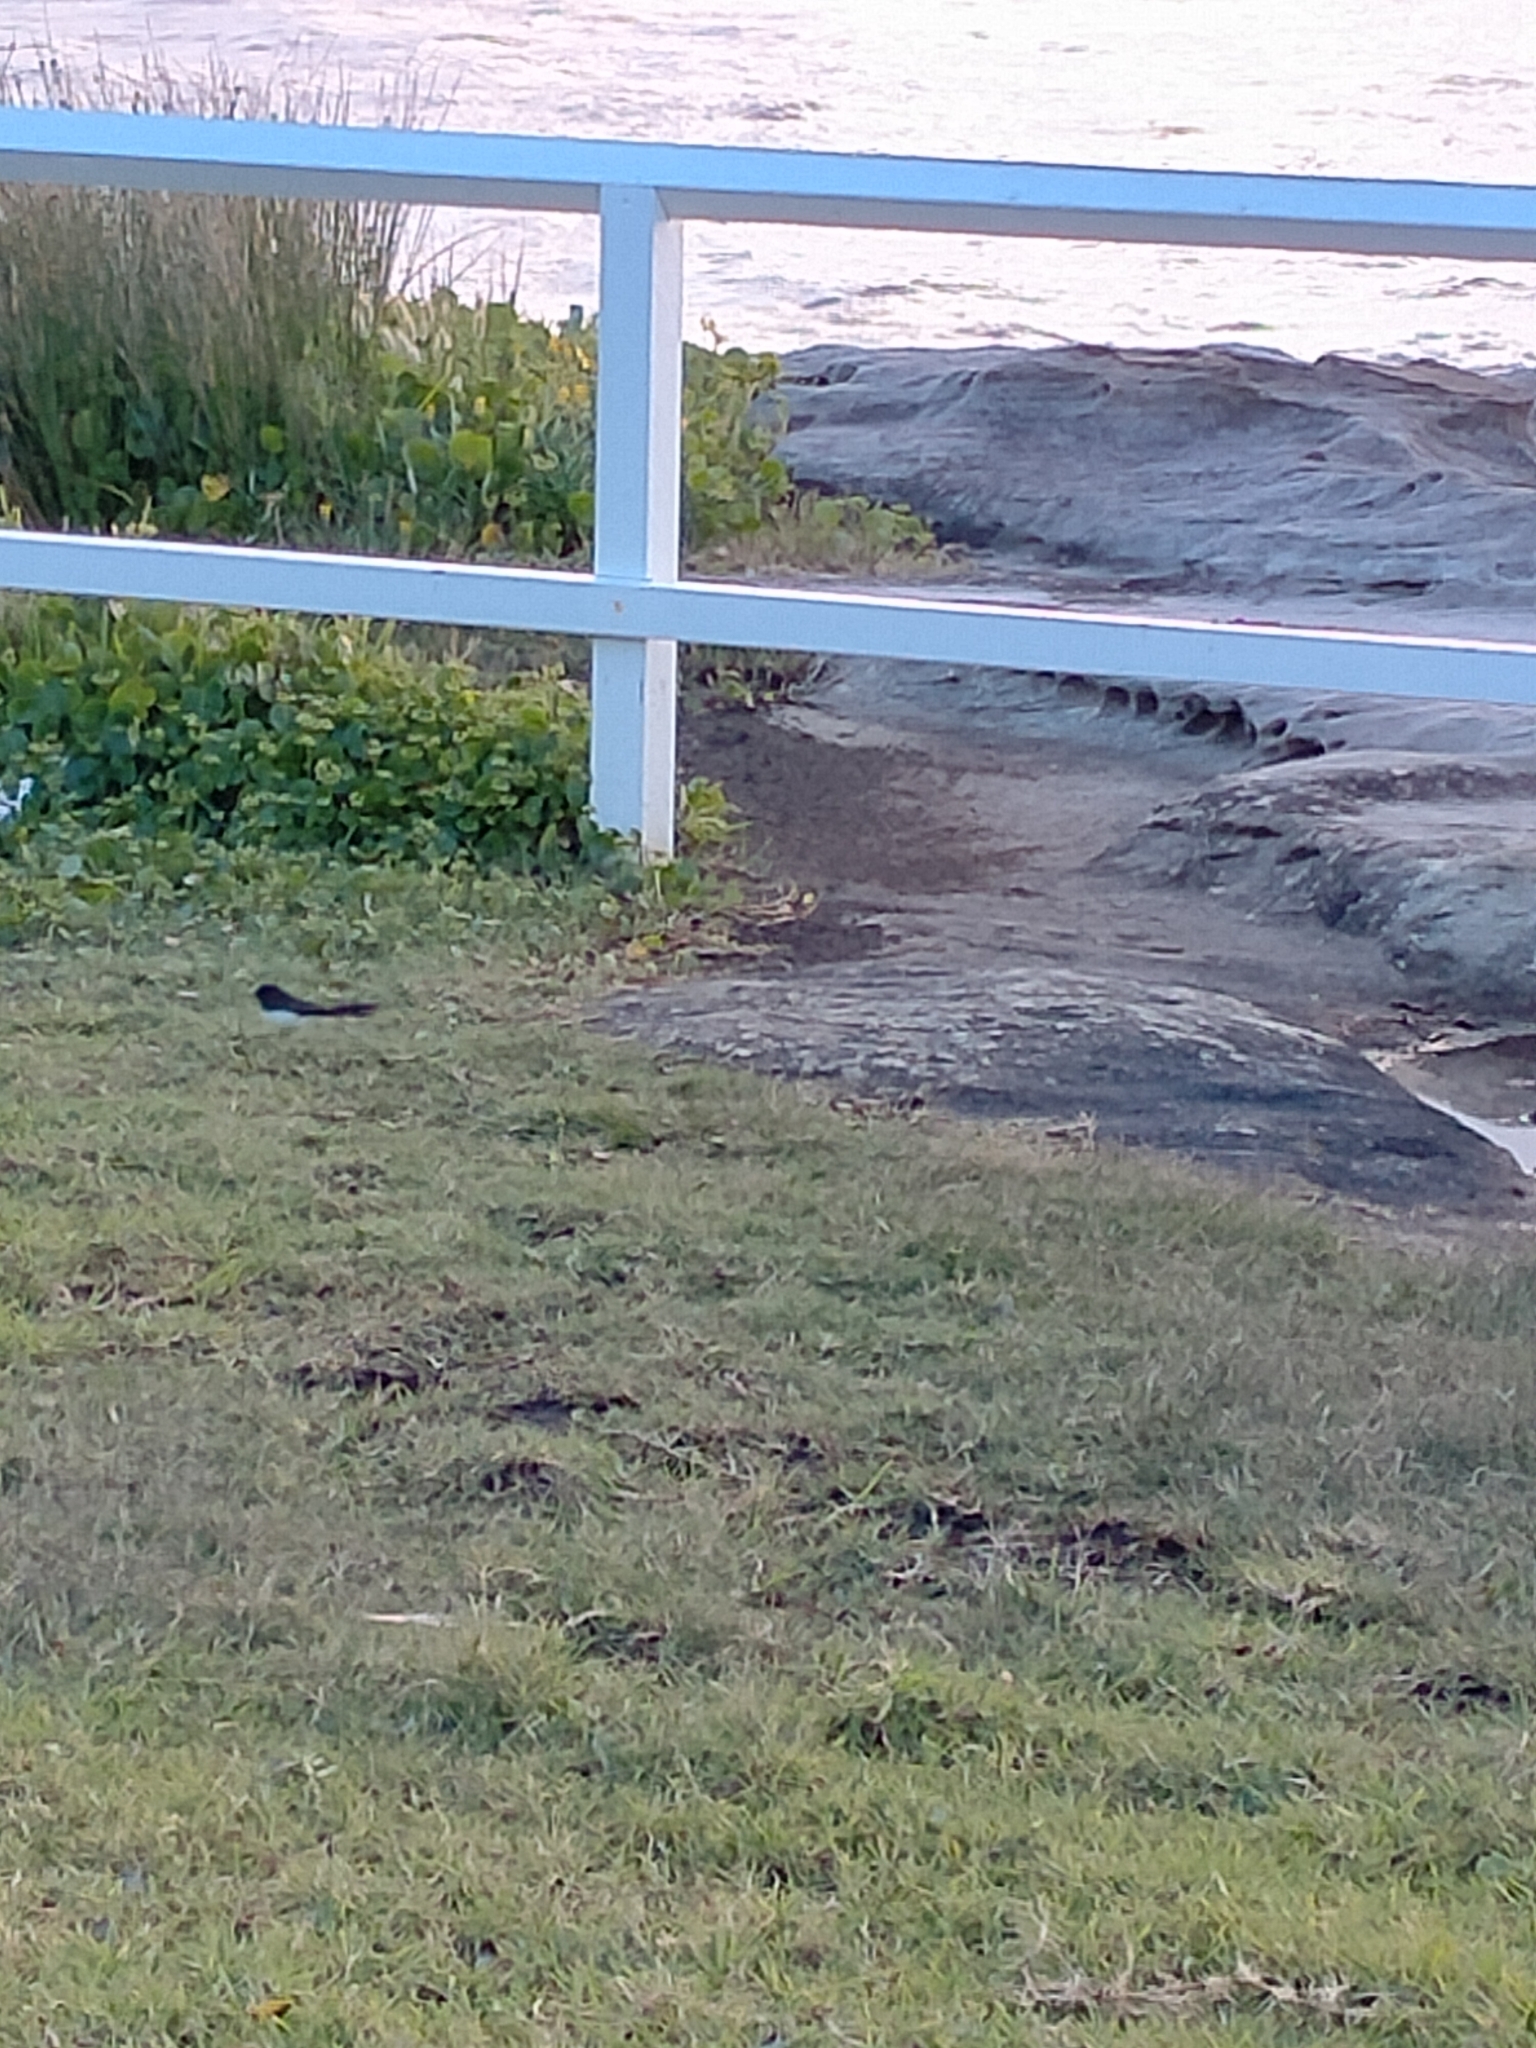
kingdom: Animalia
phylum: Chordata
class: Aves
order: Passeriformes
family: Rhipiduridae
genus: Rhipidura
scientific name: Rhipidura leucophrys
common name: Willie wagtail
